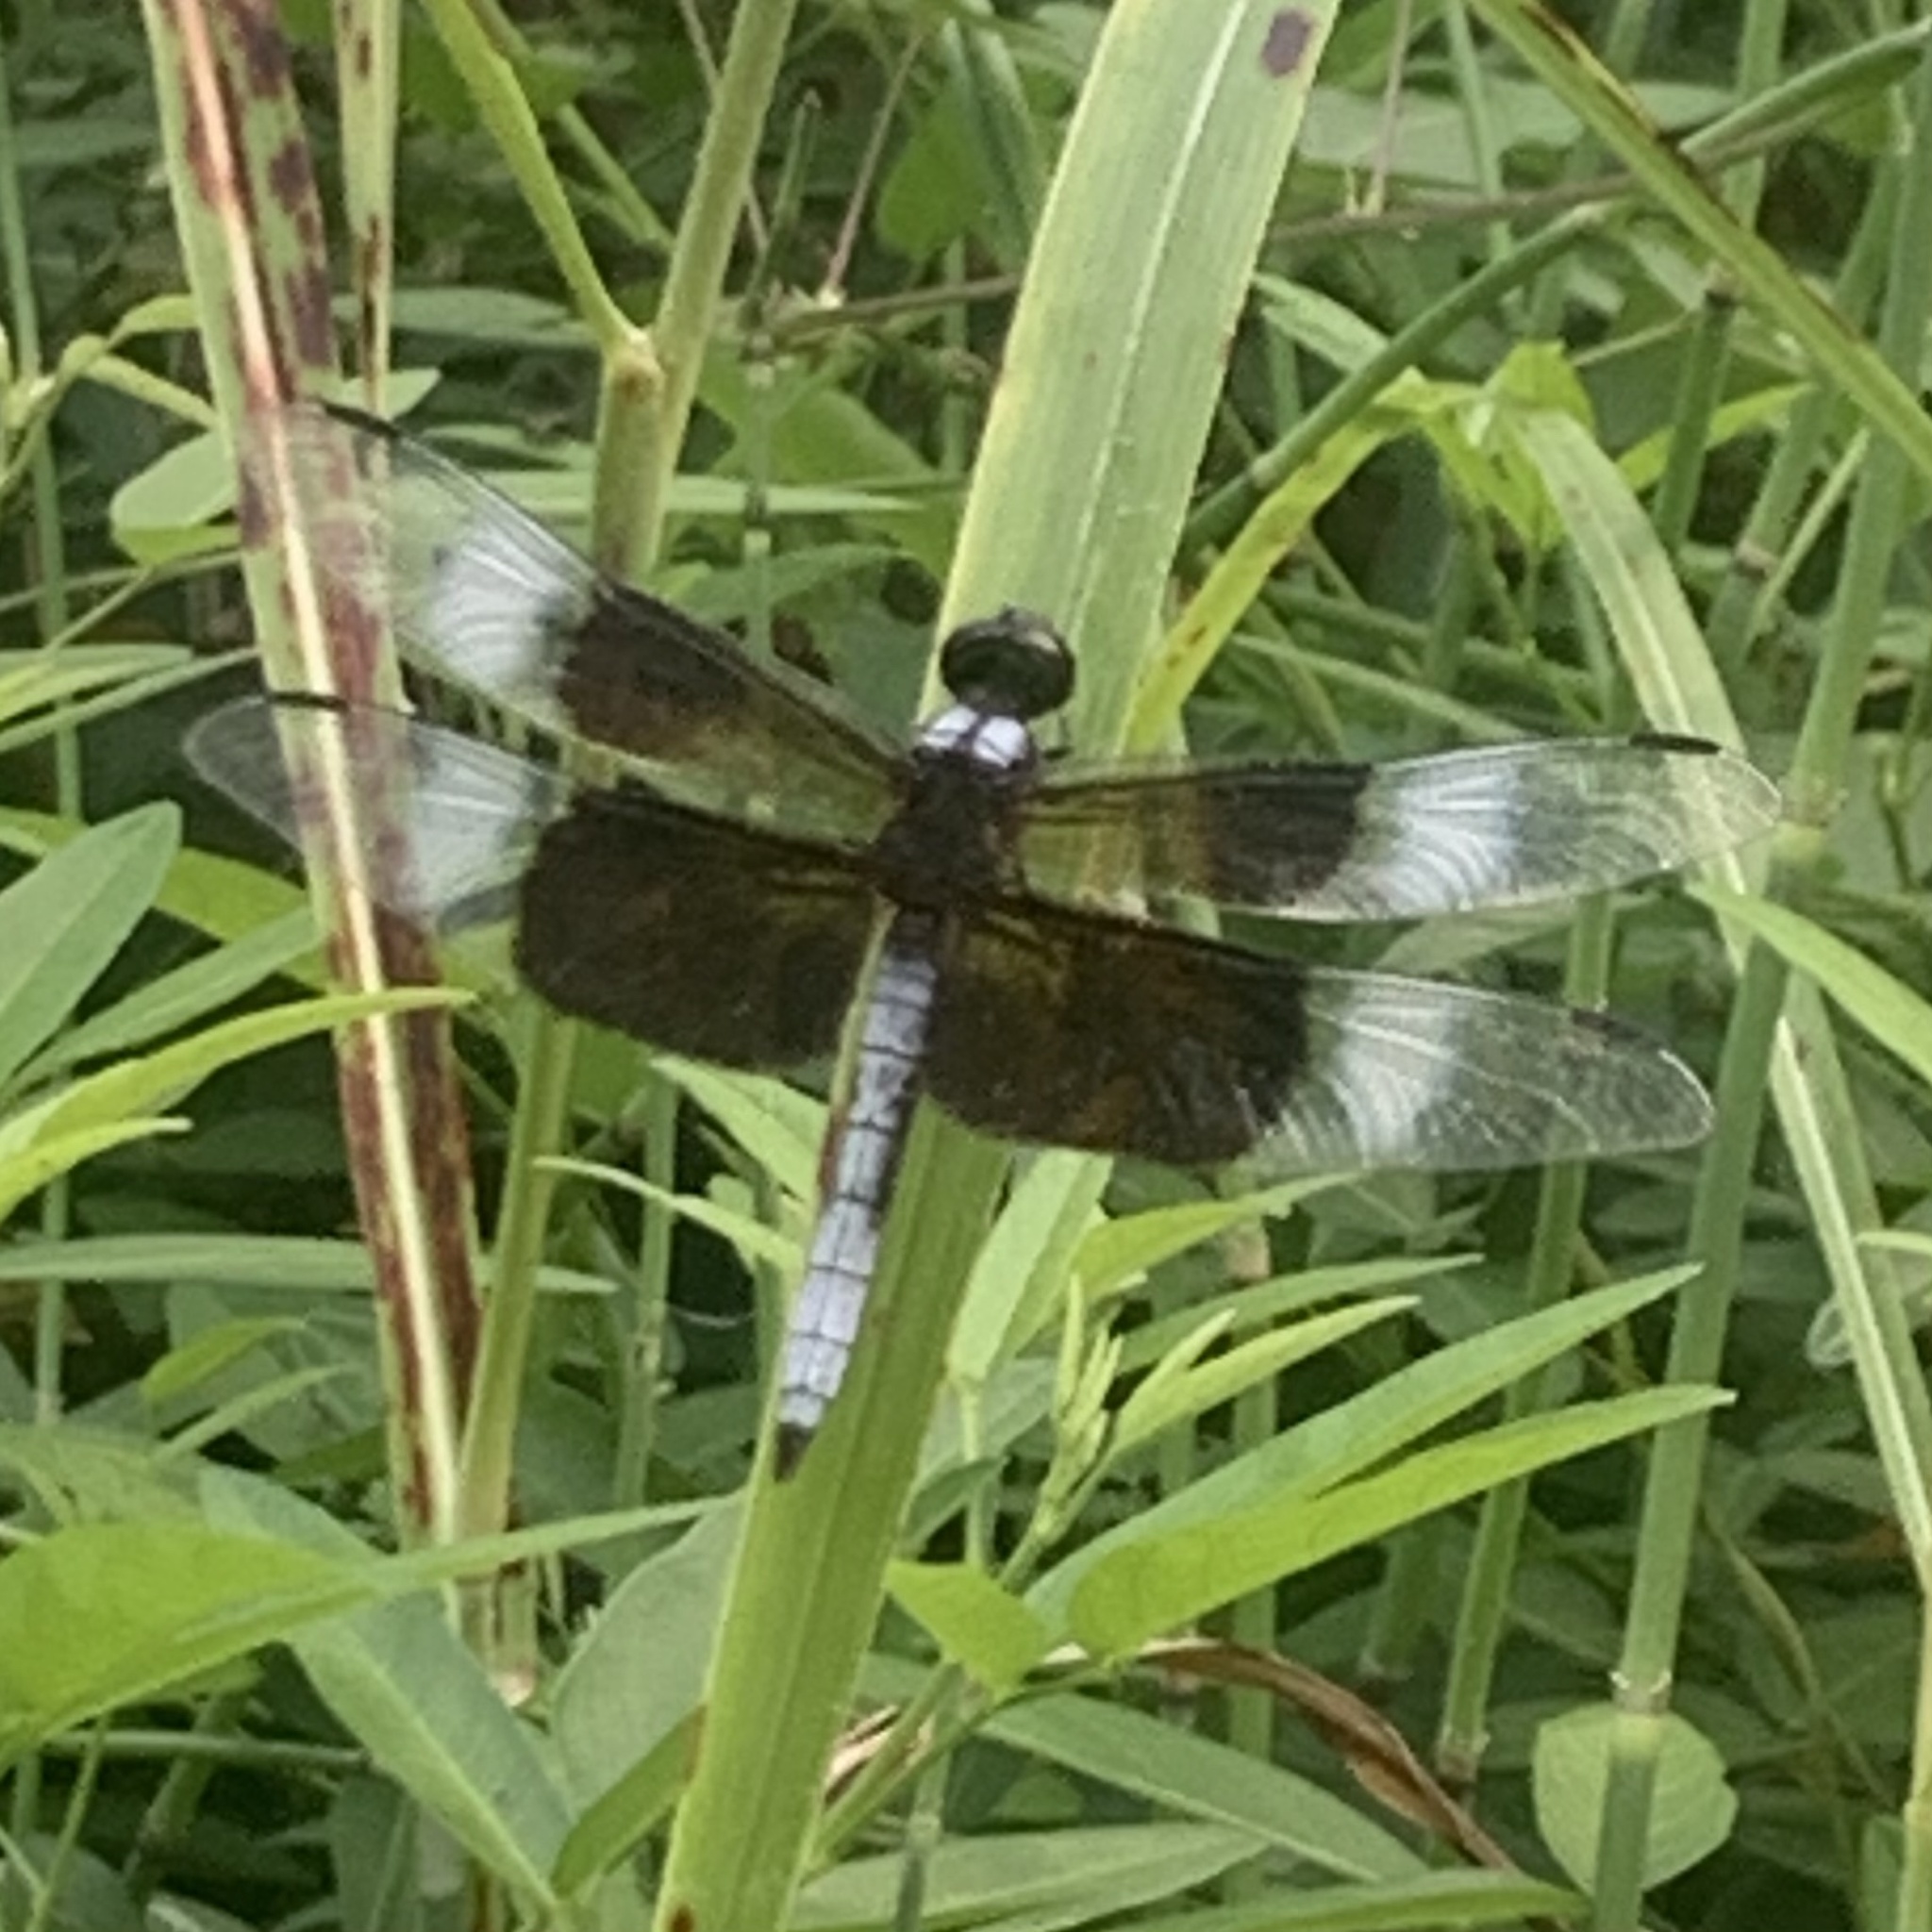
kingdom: Animalia
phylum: Arthropoda
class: Insecta
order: Odonata
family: Libellulidae
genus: Libellula
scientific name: Libellula luctuosa
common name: Widow skimmer
